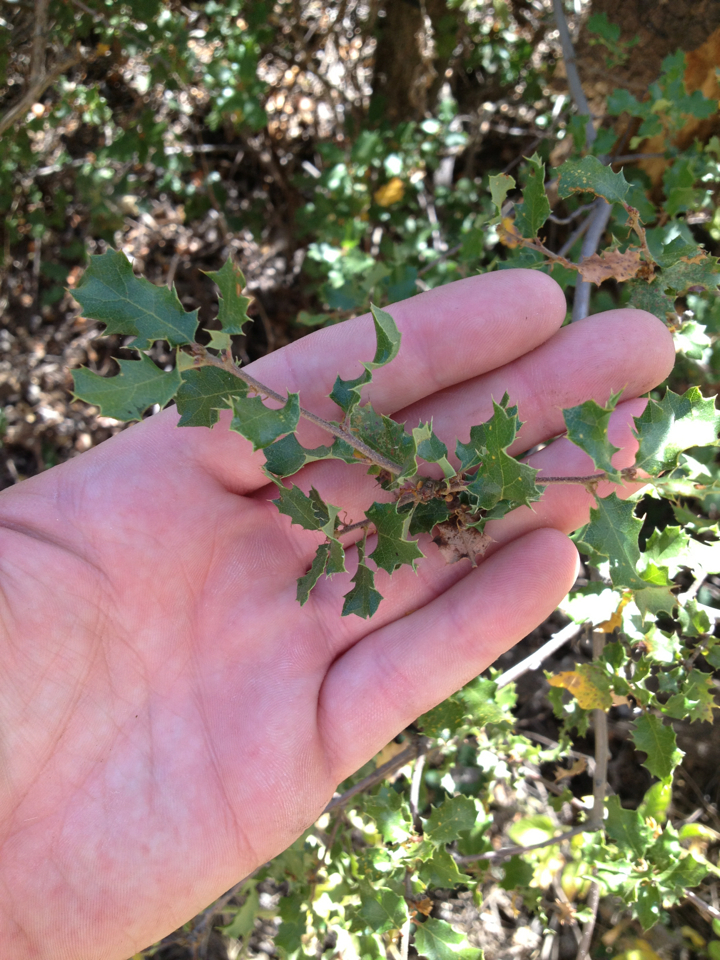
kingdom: Plantae
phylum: Tracheophyta
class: Magnoliopsida
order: Fagales
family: Fagaceae
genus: Quercus
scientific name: Quercus berberidifolia
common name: California scrub oak
